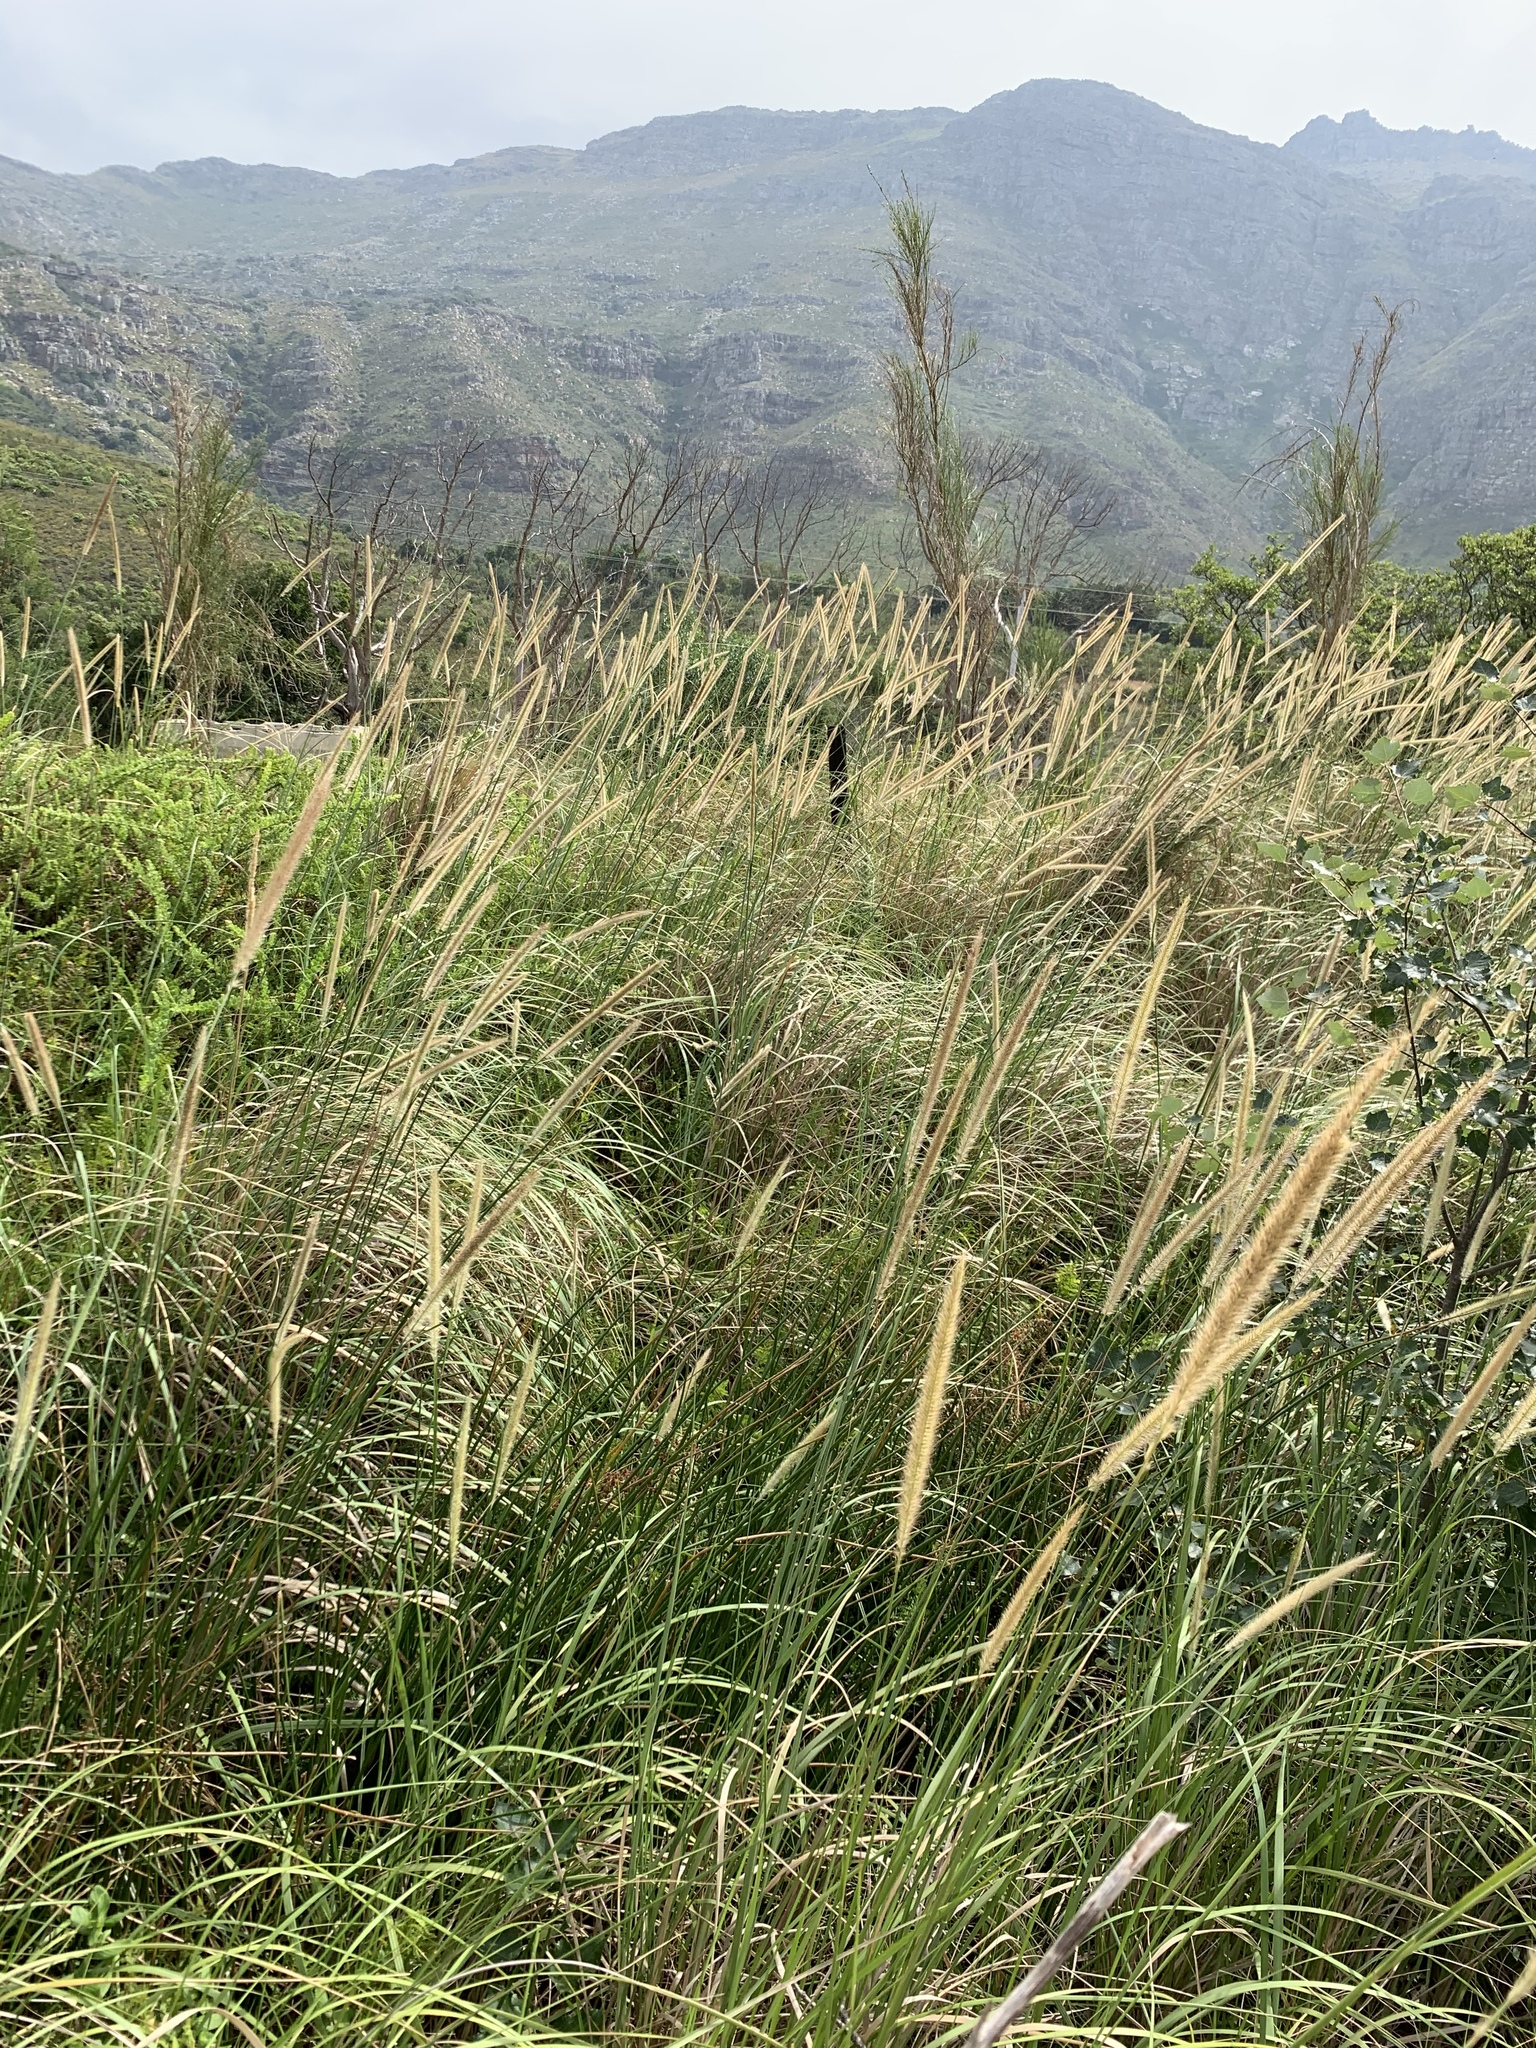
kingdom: Plantae
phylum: Tracheophyta
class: Liliopsida
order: Poales
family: Poaceae
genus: Cenchrus
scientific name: Cenchrus caudatus
